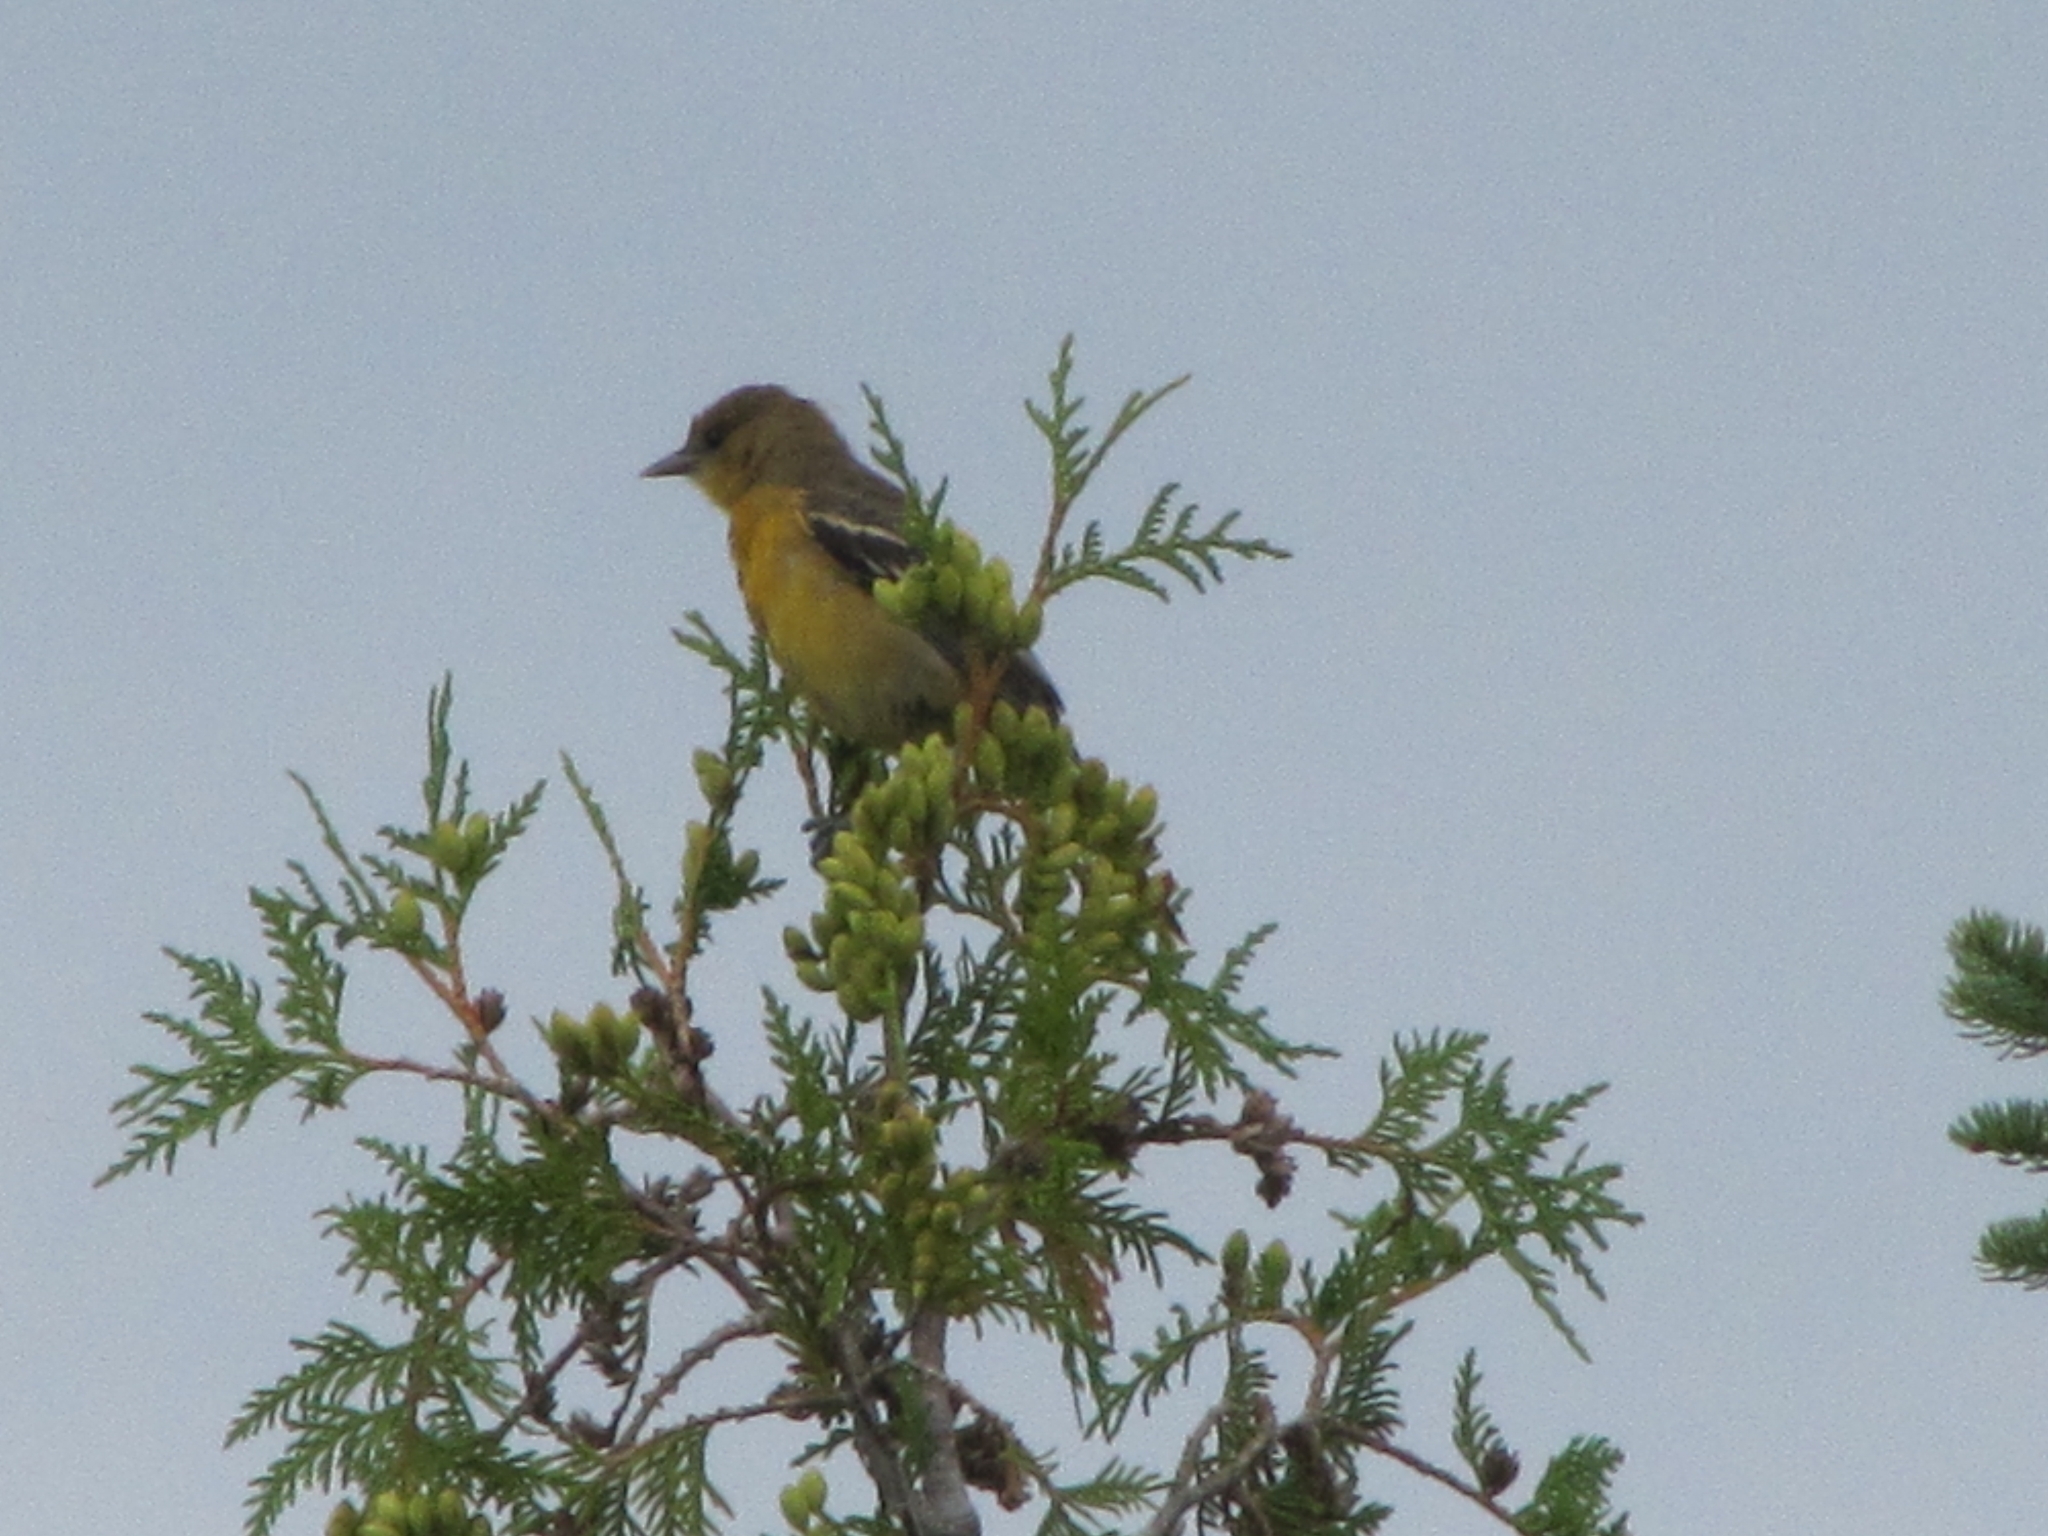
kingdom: Animalia
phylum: Chordata
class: Aves
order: Passeriformes
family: Icteridae
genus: Icterus
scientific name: Icterus galbula
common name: Baltimore oriole
